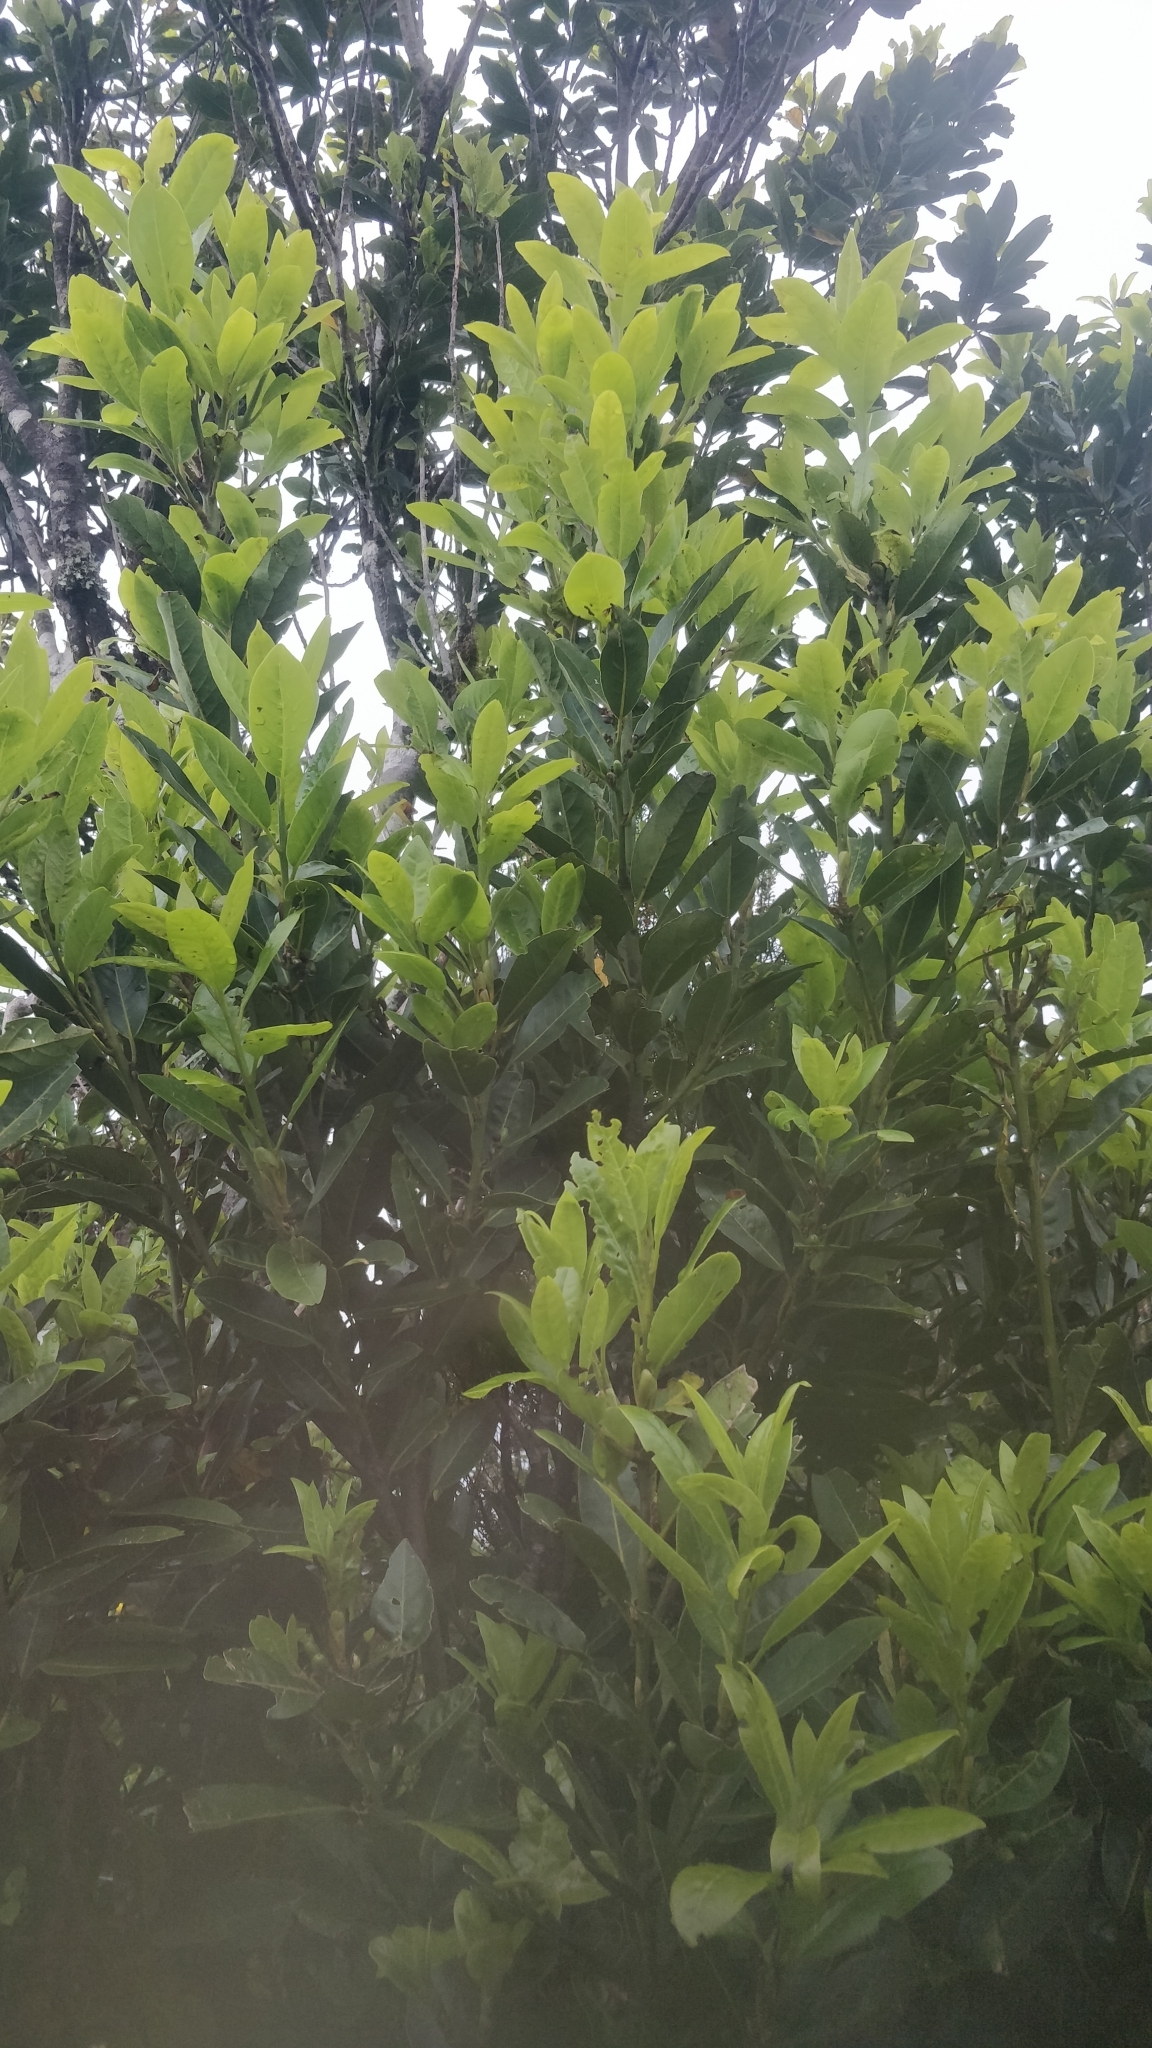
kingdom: Plantae
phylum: Tracheophyta
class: Magnoliopsida
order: Laurales
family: Lauraceae
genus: Laurus
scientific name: Laurus novocanariensis
